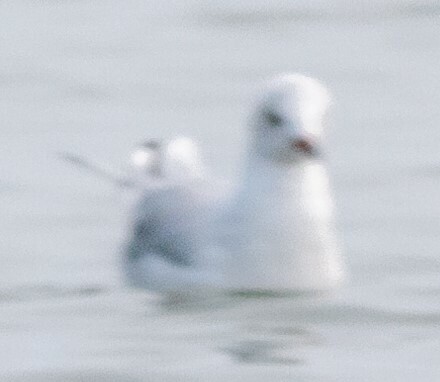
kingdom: Animalia
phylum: Chordata
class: Aves
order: Charadriiformes
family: Laridae
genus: Chroicocephalus
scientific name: Chroicocephalus ridibundus
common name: Black-headed gull
